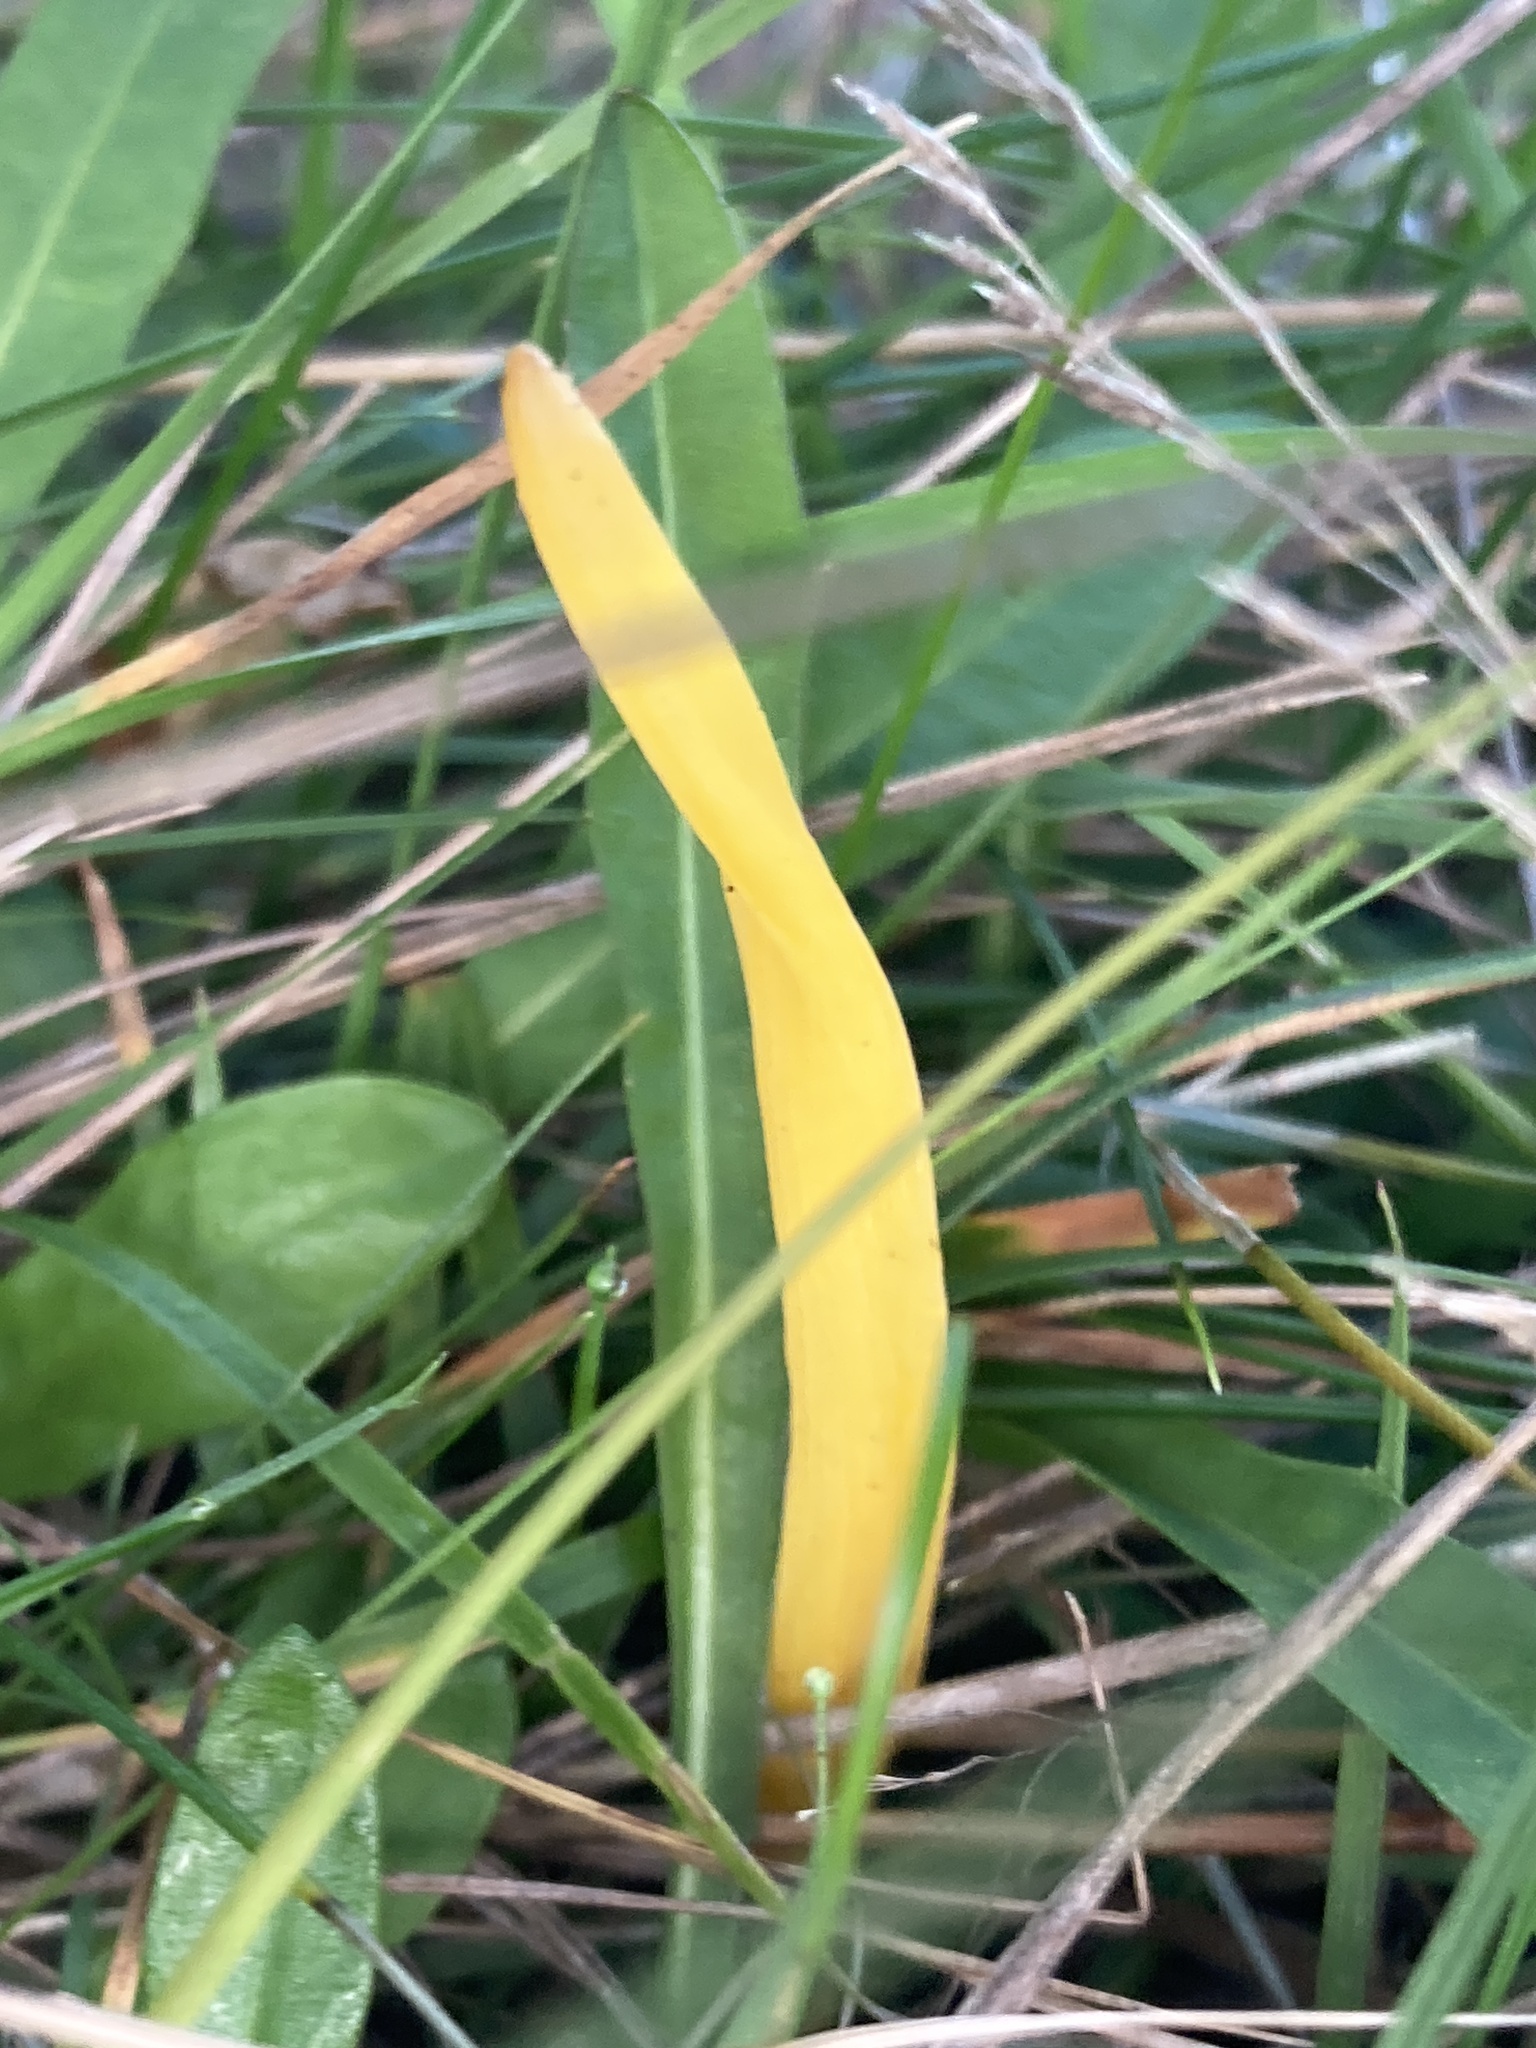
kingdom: Fungi
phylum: Basidiomycota
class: Agaricomycetes
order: Agaricales
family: Clavariaceae
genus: Clavulinopsis
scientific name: Clavulinopsis helvola
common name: Yellow club
